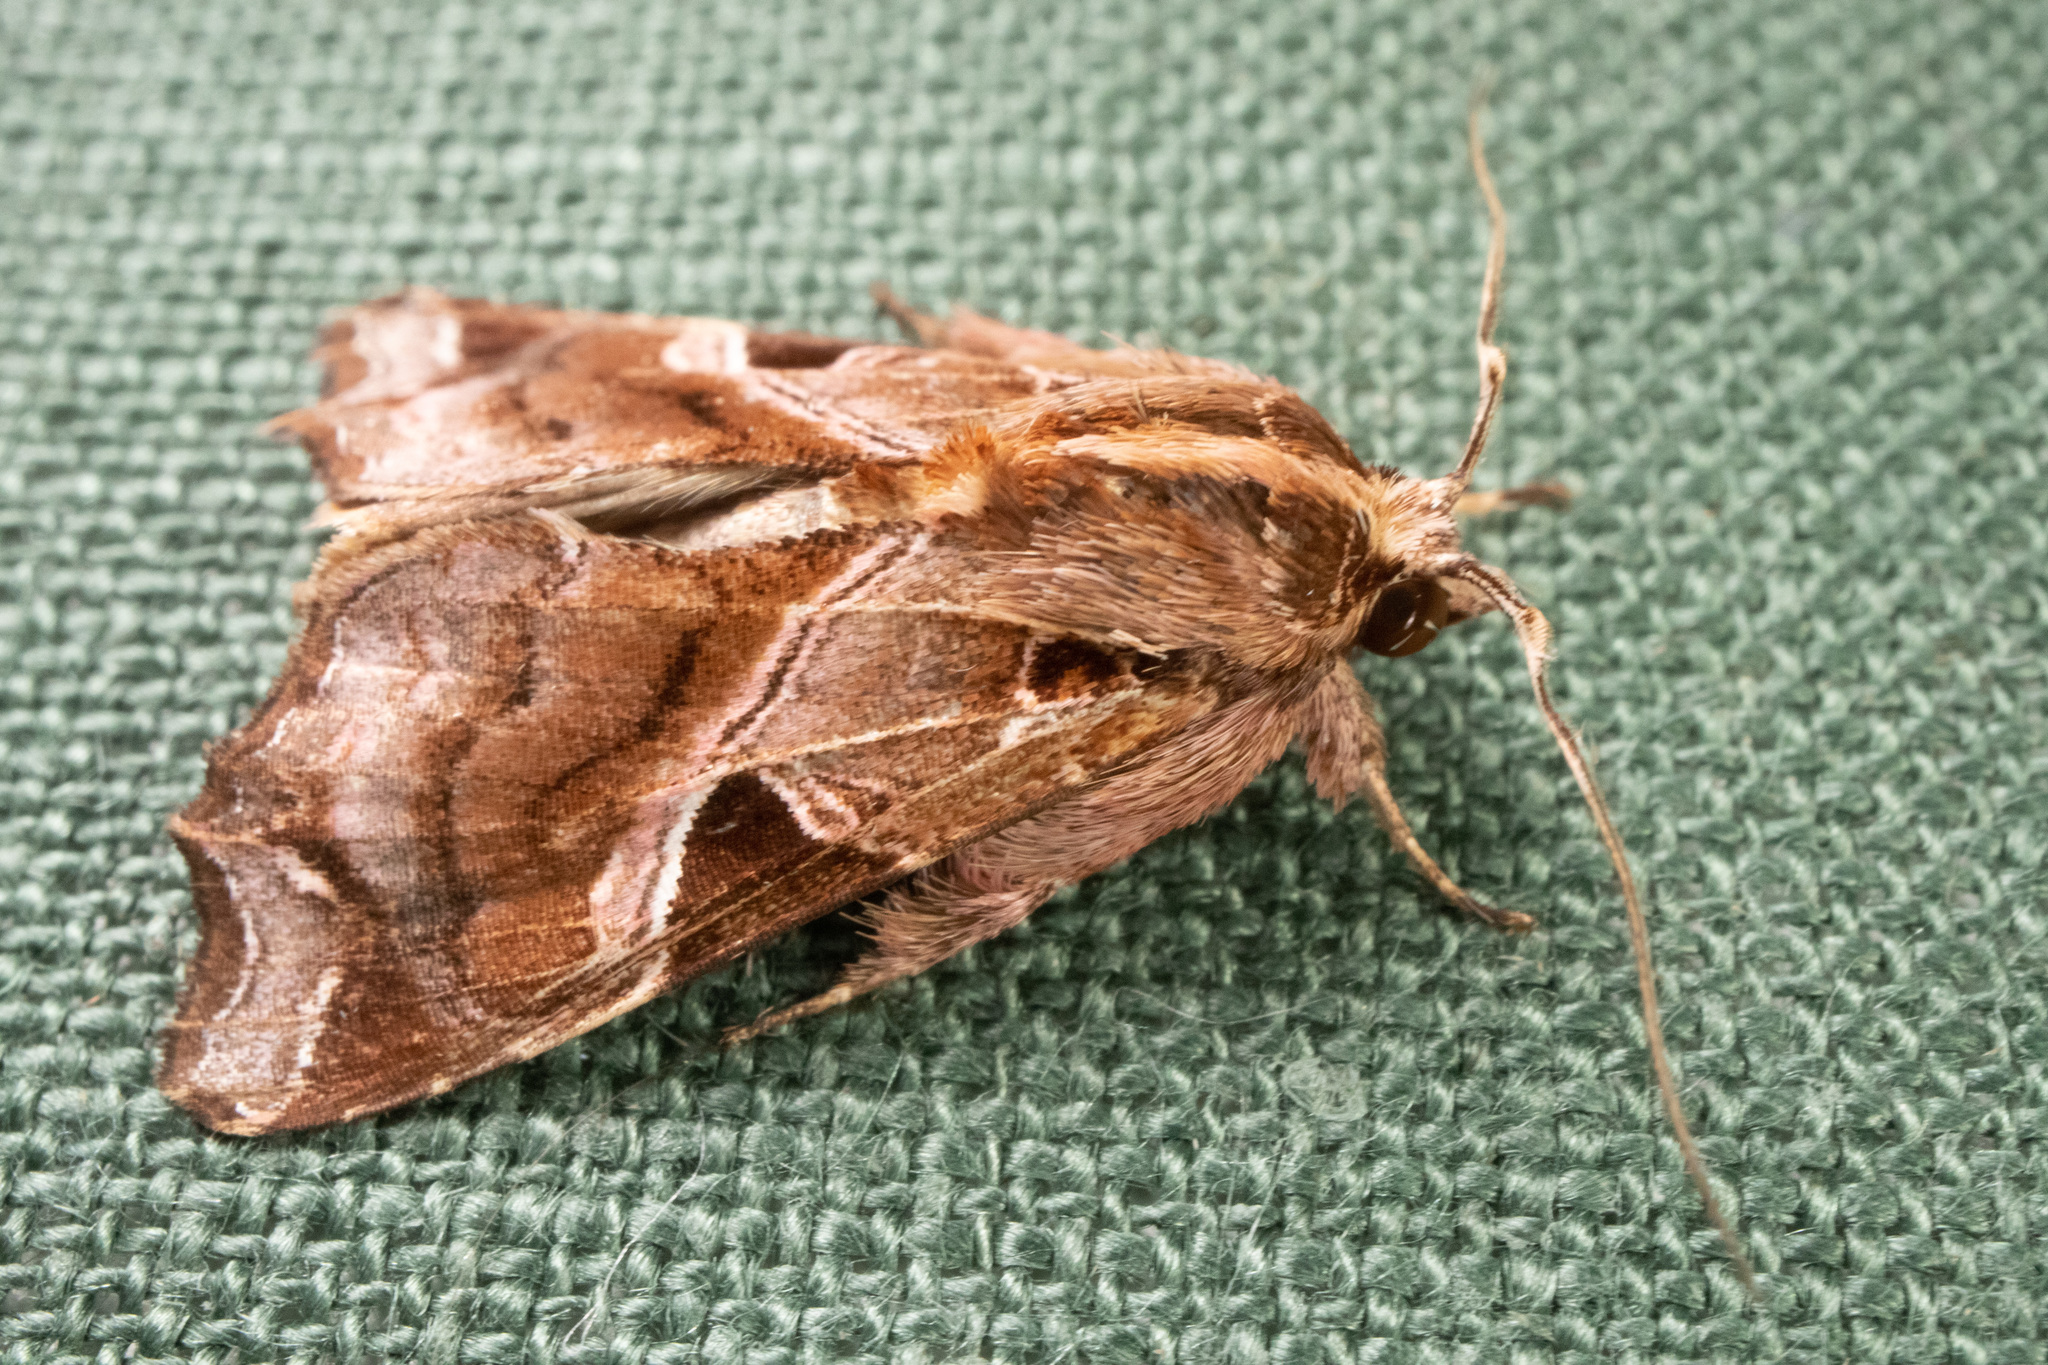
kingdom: Animalia
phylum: Arthropoda
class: Insecta
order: Lepidoptera
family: Noctuidae
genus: Callopistria
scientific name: Callopistria floridensis
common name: Florida fern moth
